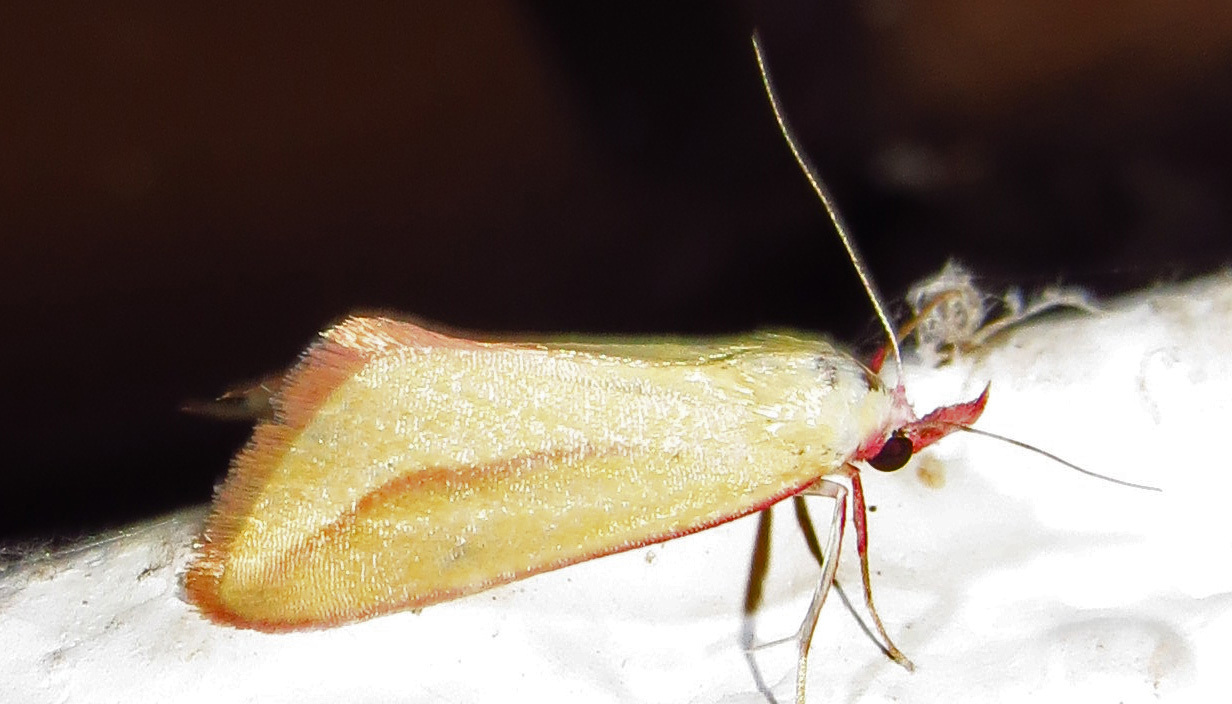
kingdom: Animalia
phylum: Arthropoda
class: Insecta
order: Lepidoptera
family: Erebidae
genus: Phytometra
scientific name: Phytometra obliqualis
